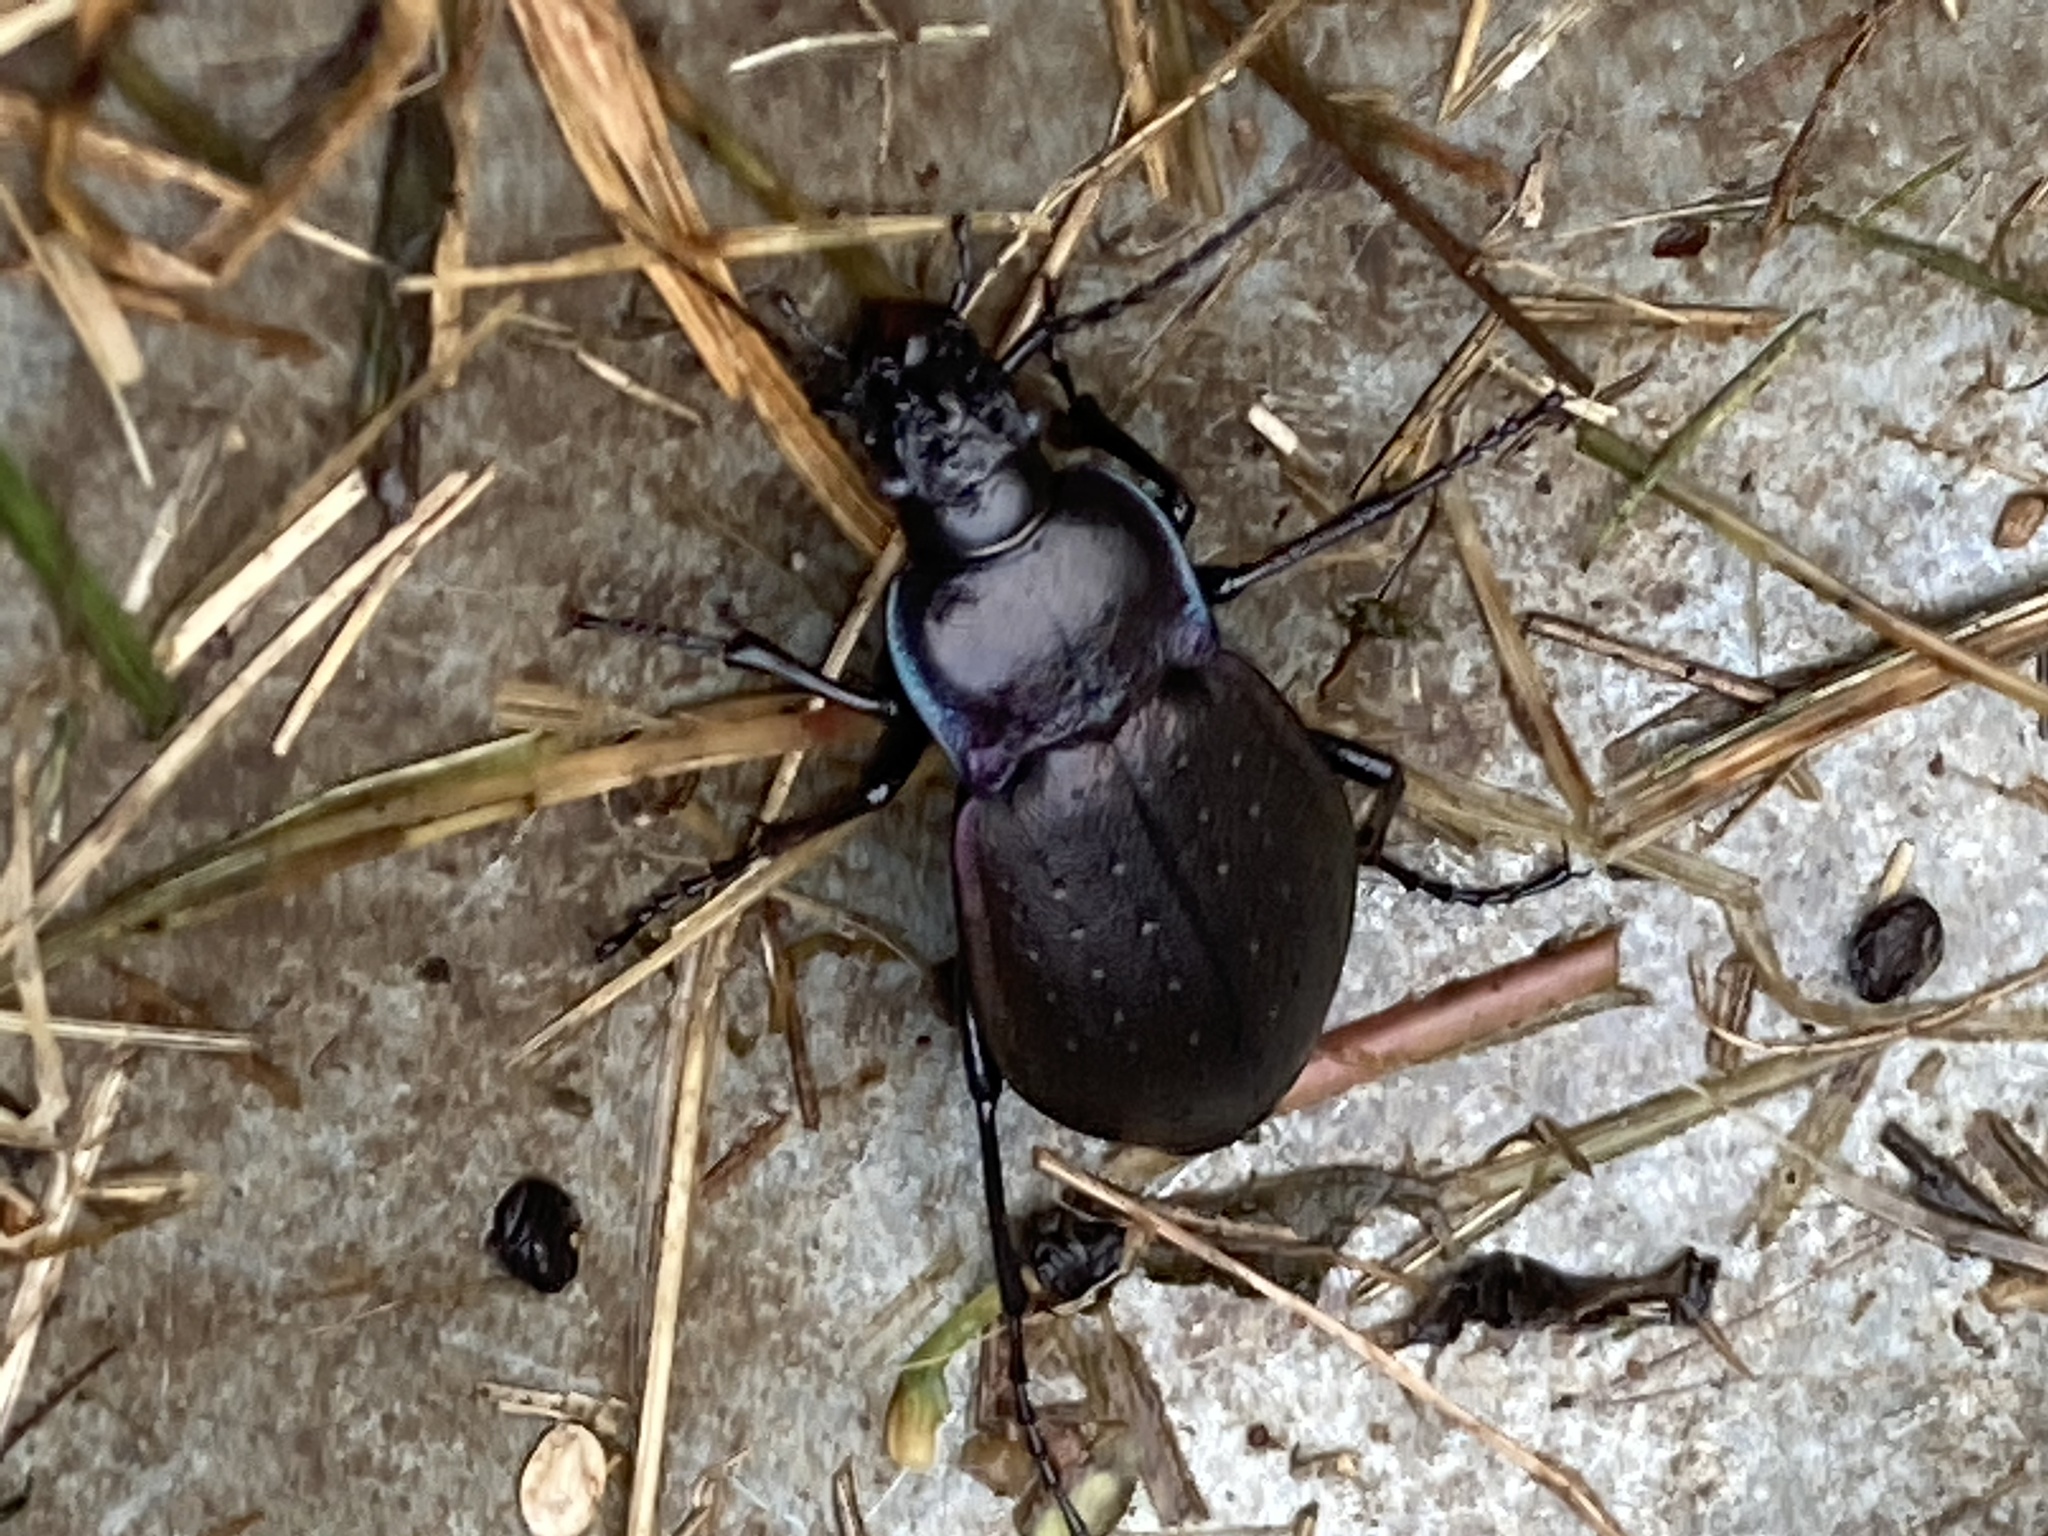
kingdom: Animalia
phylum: Arthropoda
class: Insecta
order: Coleoptera
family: Carabidae
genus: Carabus
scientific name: Carabus nemoralis
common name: European ground beetle
